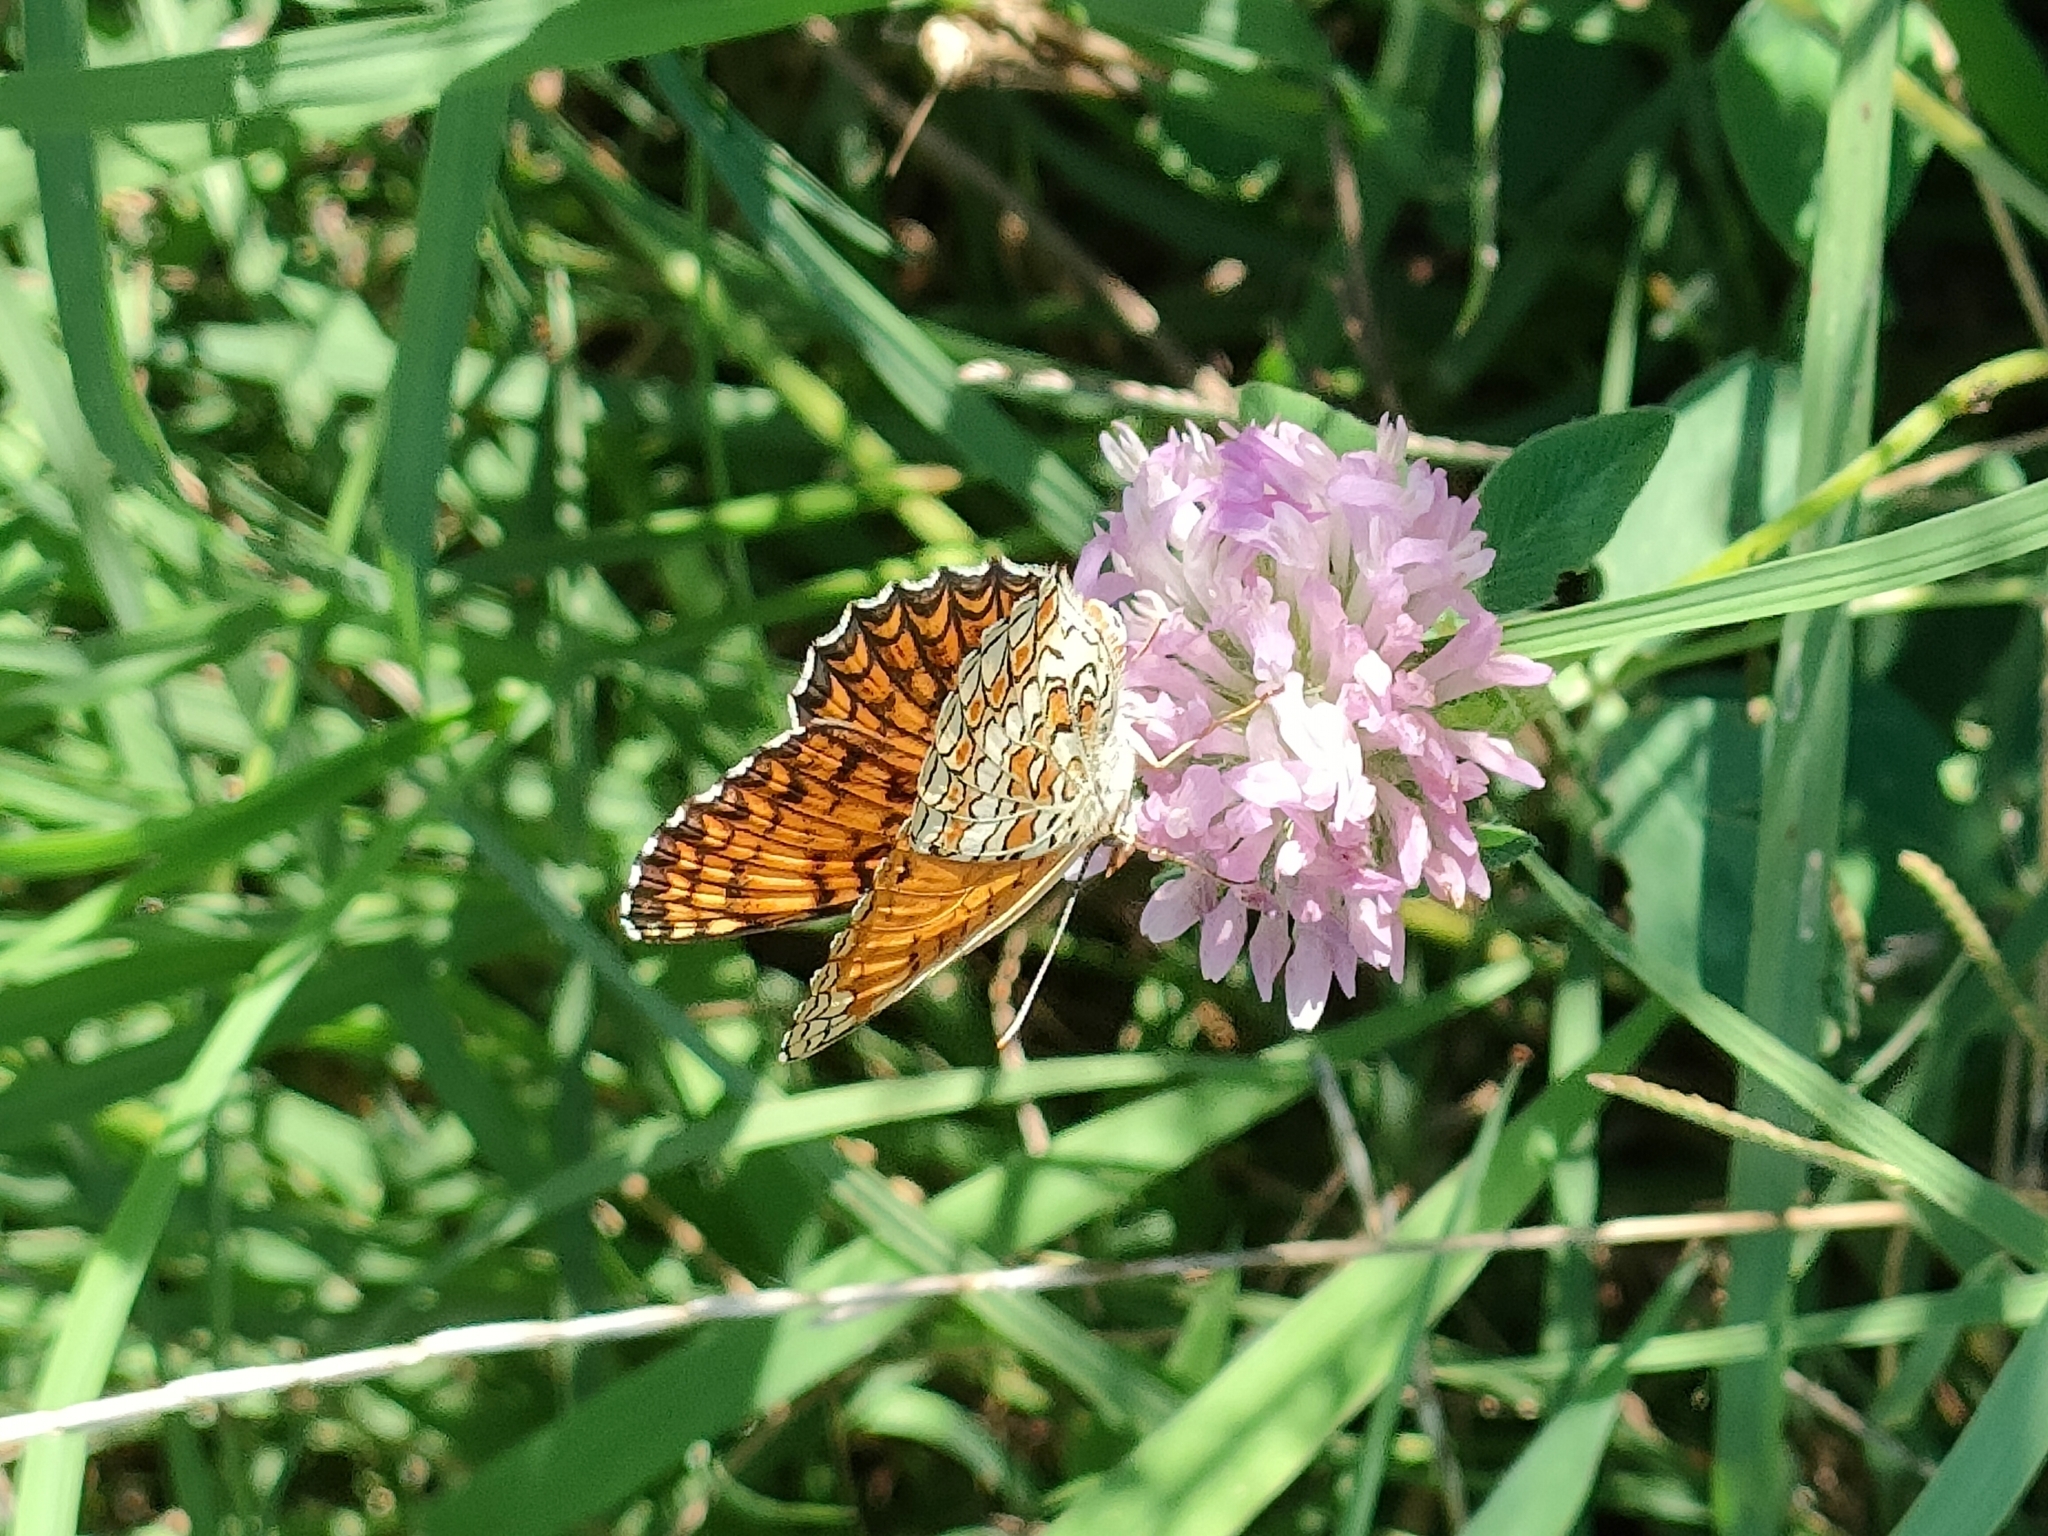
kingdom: Animalia
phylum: Arthropoda
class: Insecta
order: Lepidoptera
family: Nymphalidae
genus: Melitaea
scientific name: Melitaea phoebe
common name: Knapweed fritillary
